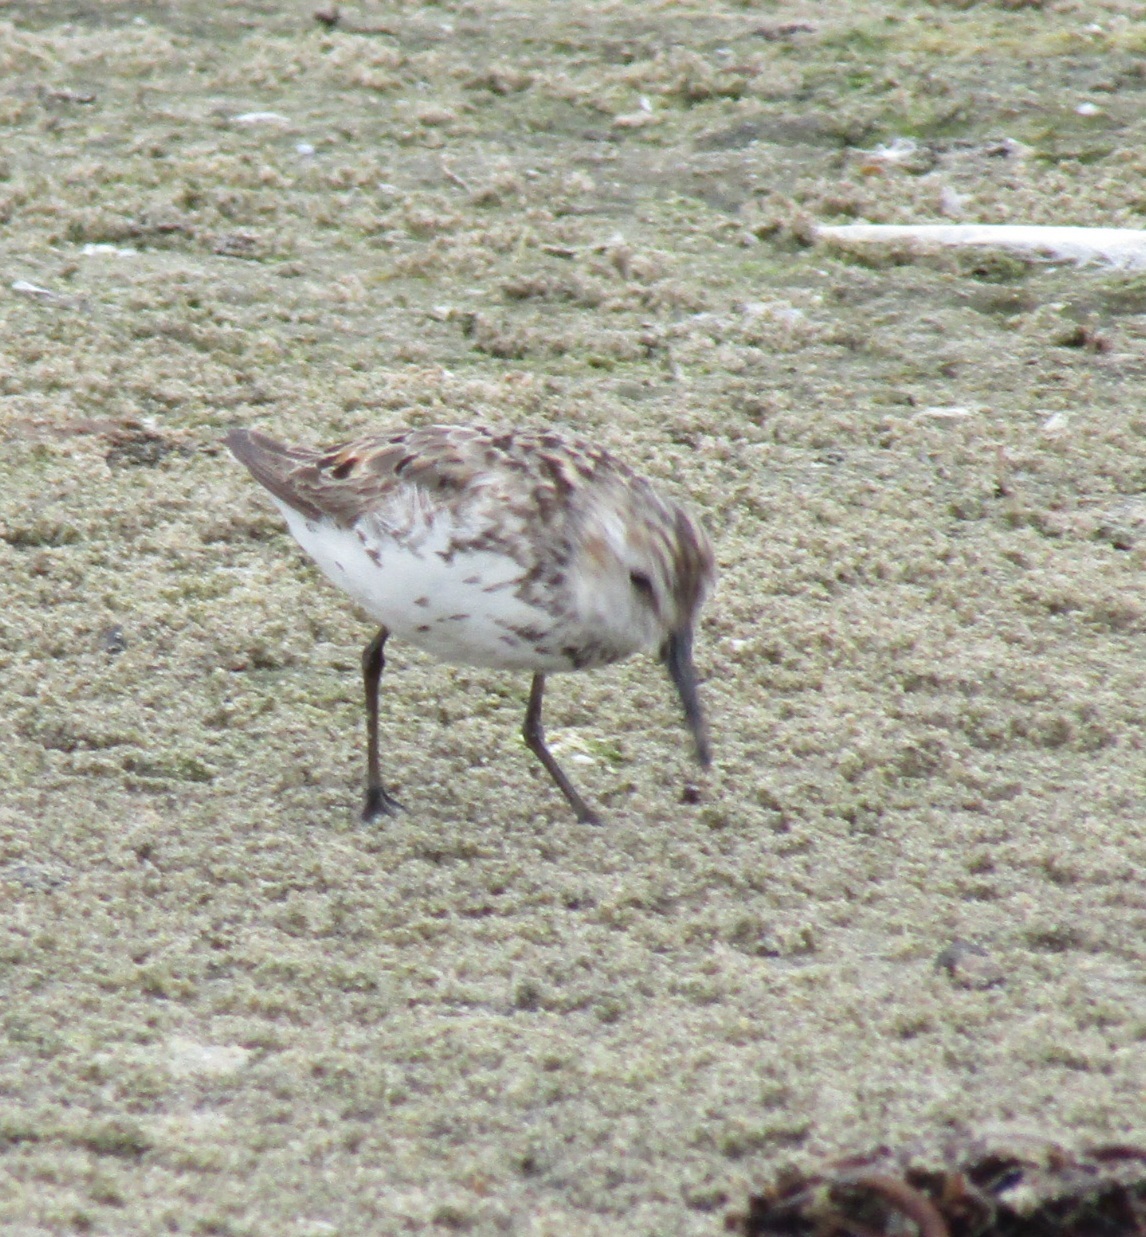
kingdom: Animalia
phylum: Chordata
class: Aves
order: Charadriiformes
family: Scolopacidae
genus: Calidris
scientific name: Calidris mauri
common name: Western sandpiper
